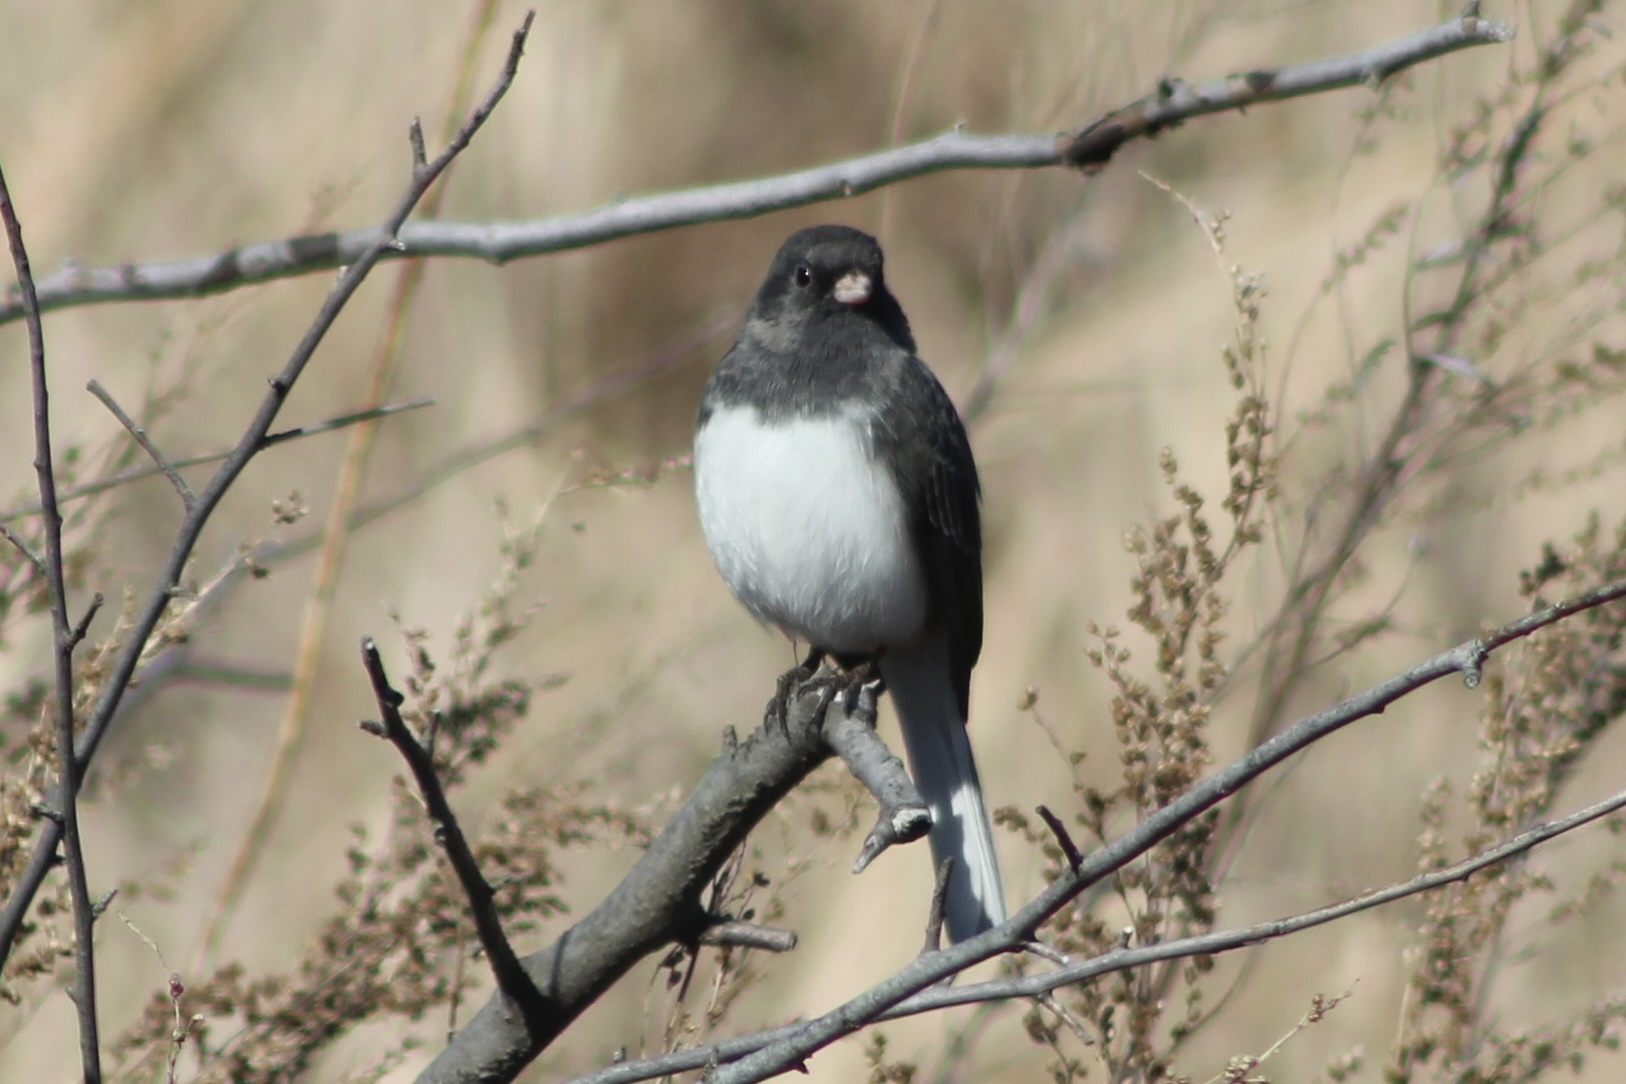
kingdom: Animalia
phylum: Chordata
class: Aves
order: Passeriformes
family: Passerellidae
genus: Junco
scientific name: Junco hyemalis
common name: Dark-eyed junco
